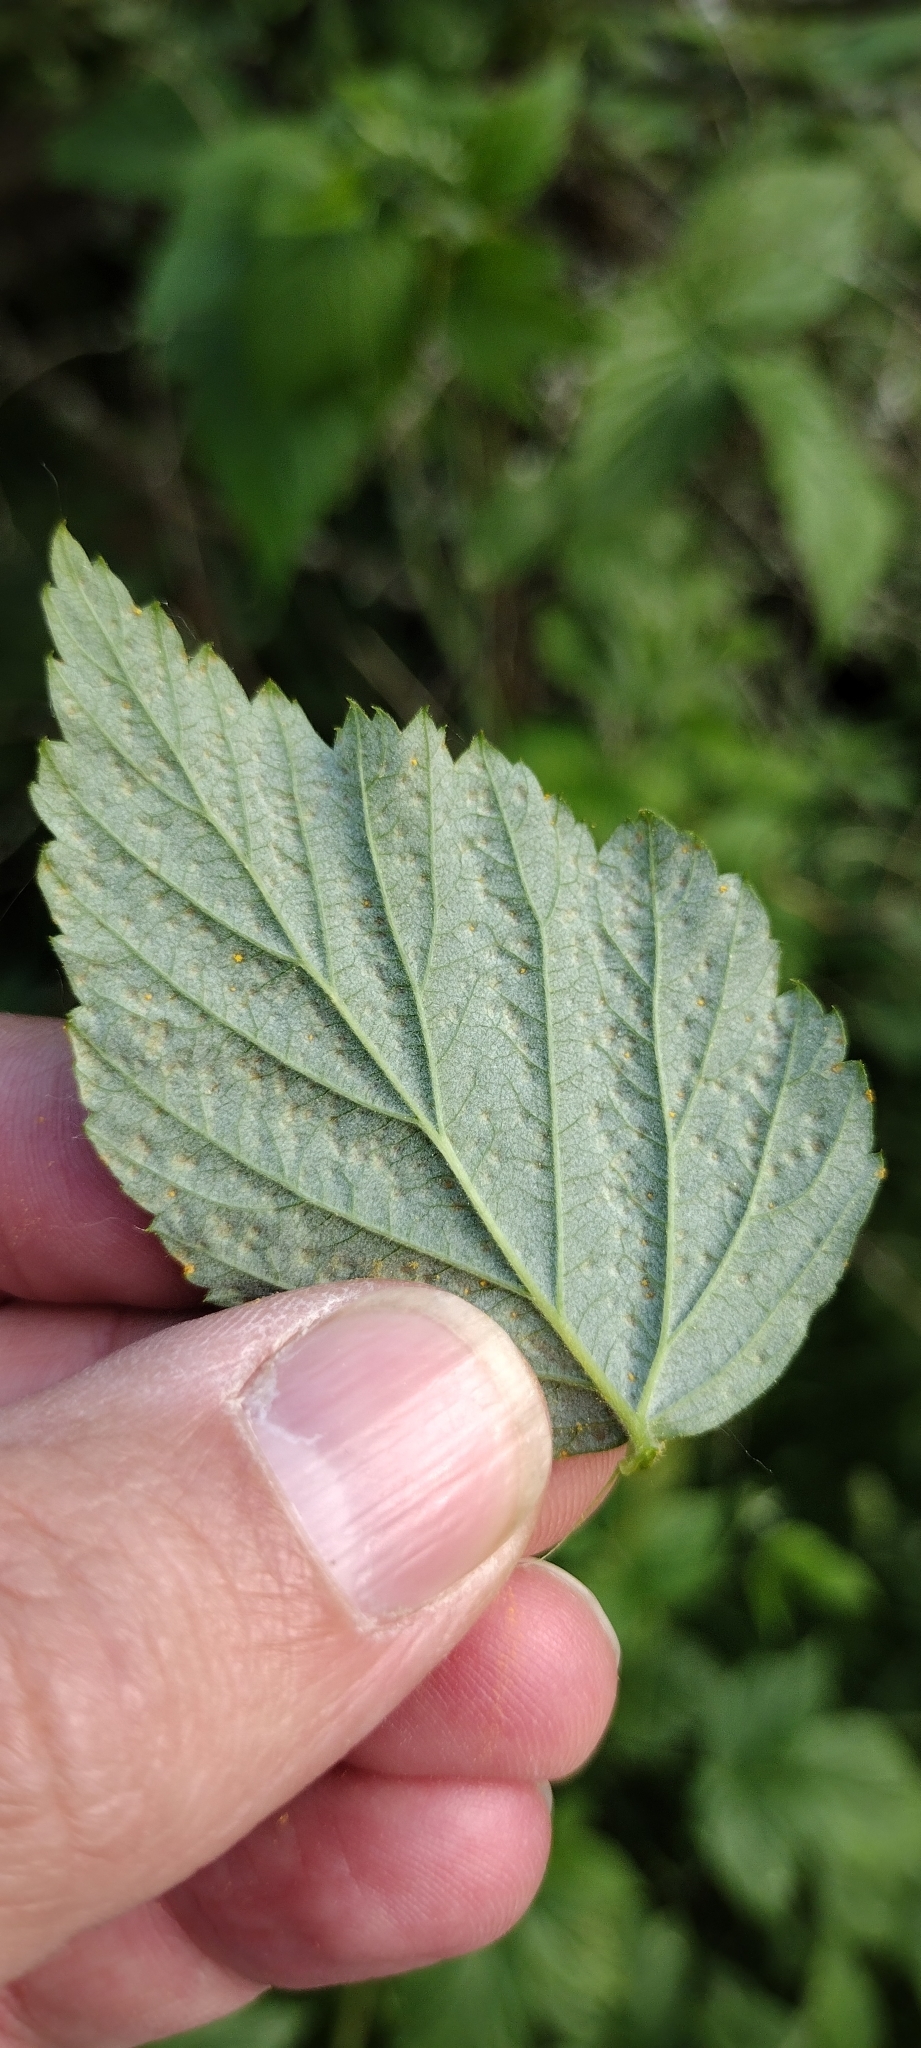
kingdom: Fungi
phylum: Basidiomycota
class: Pucciniomycetes
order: Pucciniales
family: Phragmidiaceae
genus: Phragmidium
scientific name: Phragmidium rubi-idaei
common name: Raspberry rust
